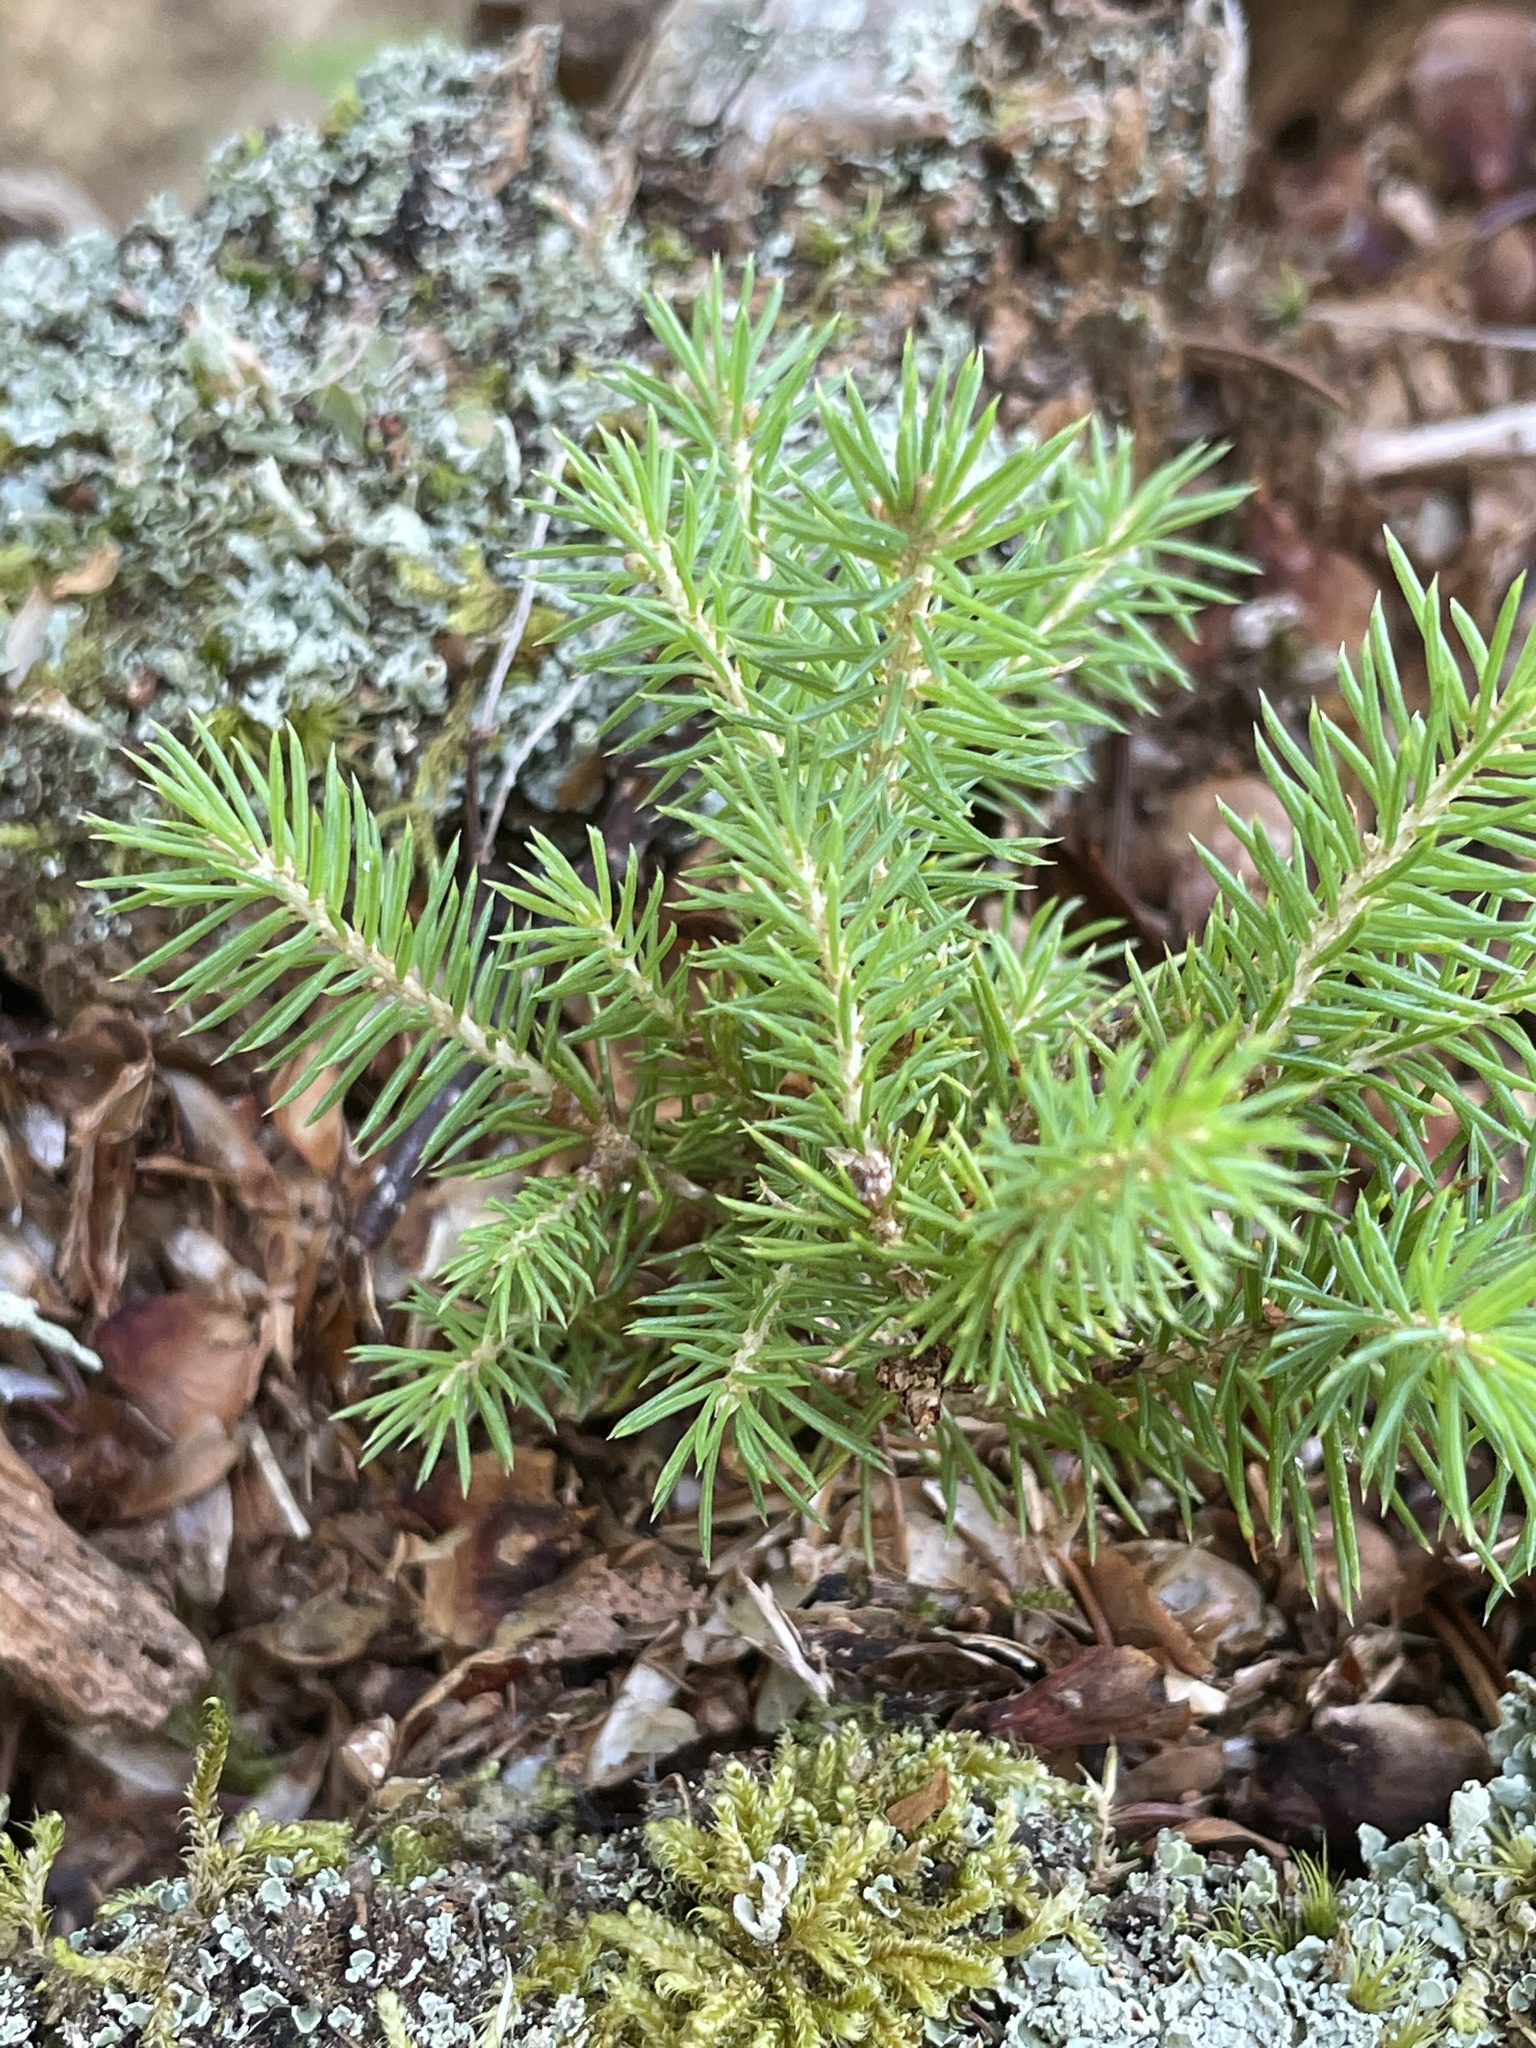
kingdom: Plantae
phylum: Tracheophyta
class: Pinopsida
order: Pinales
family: Pinaceae
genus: Picea
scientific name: Picea glauca
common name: White spruce
